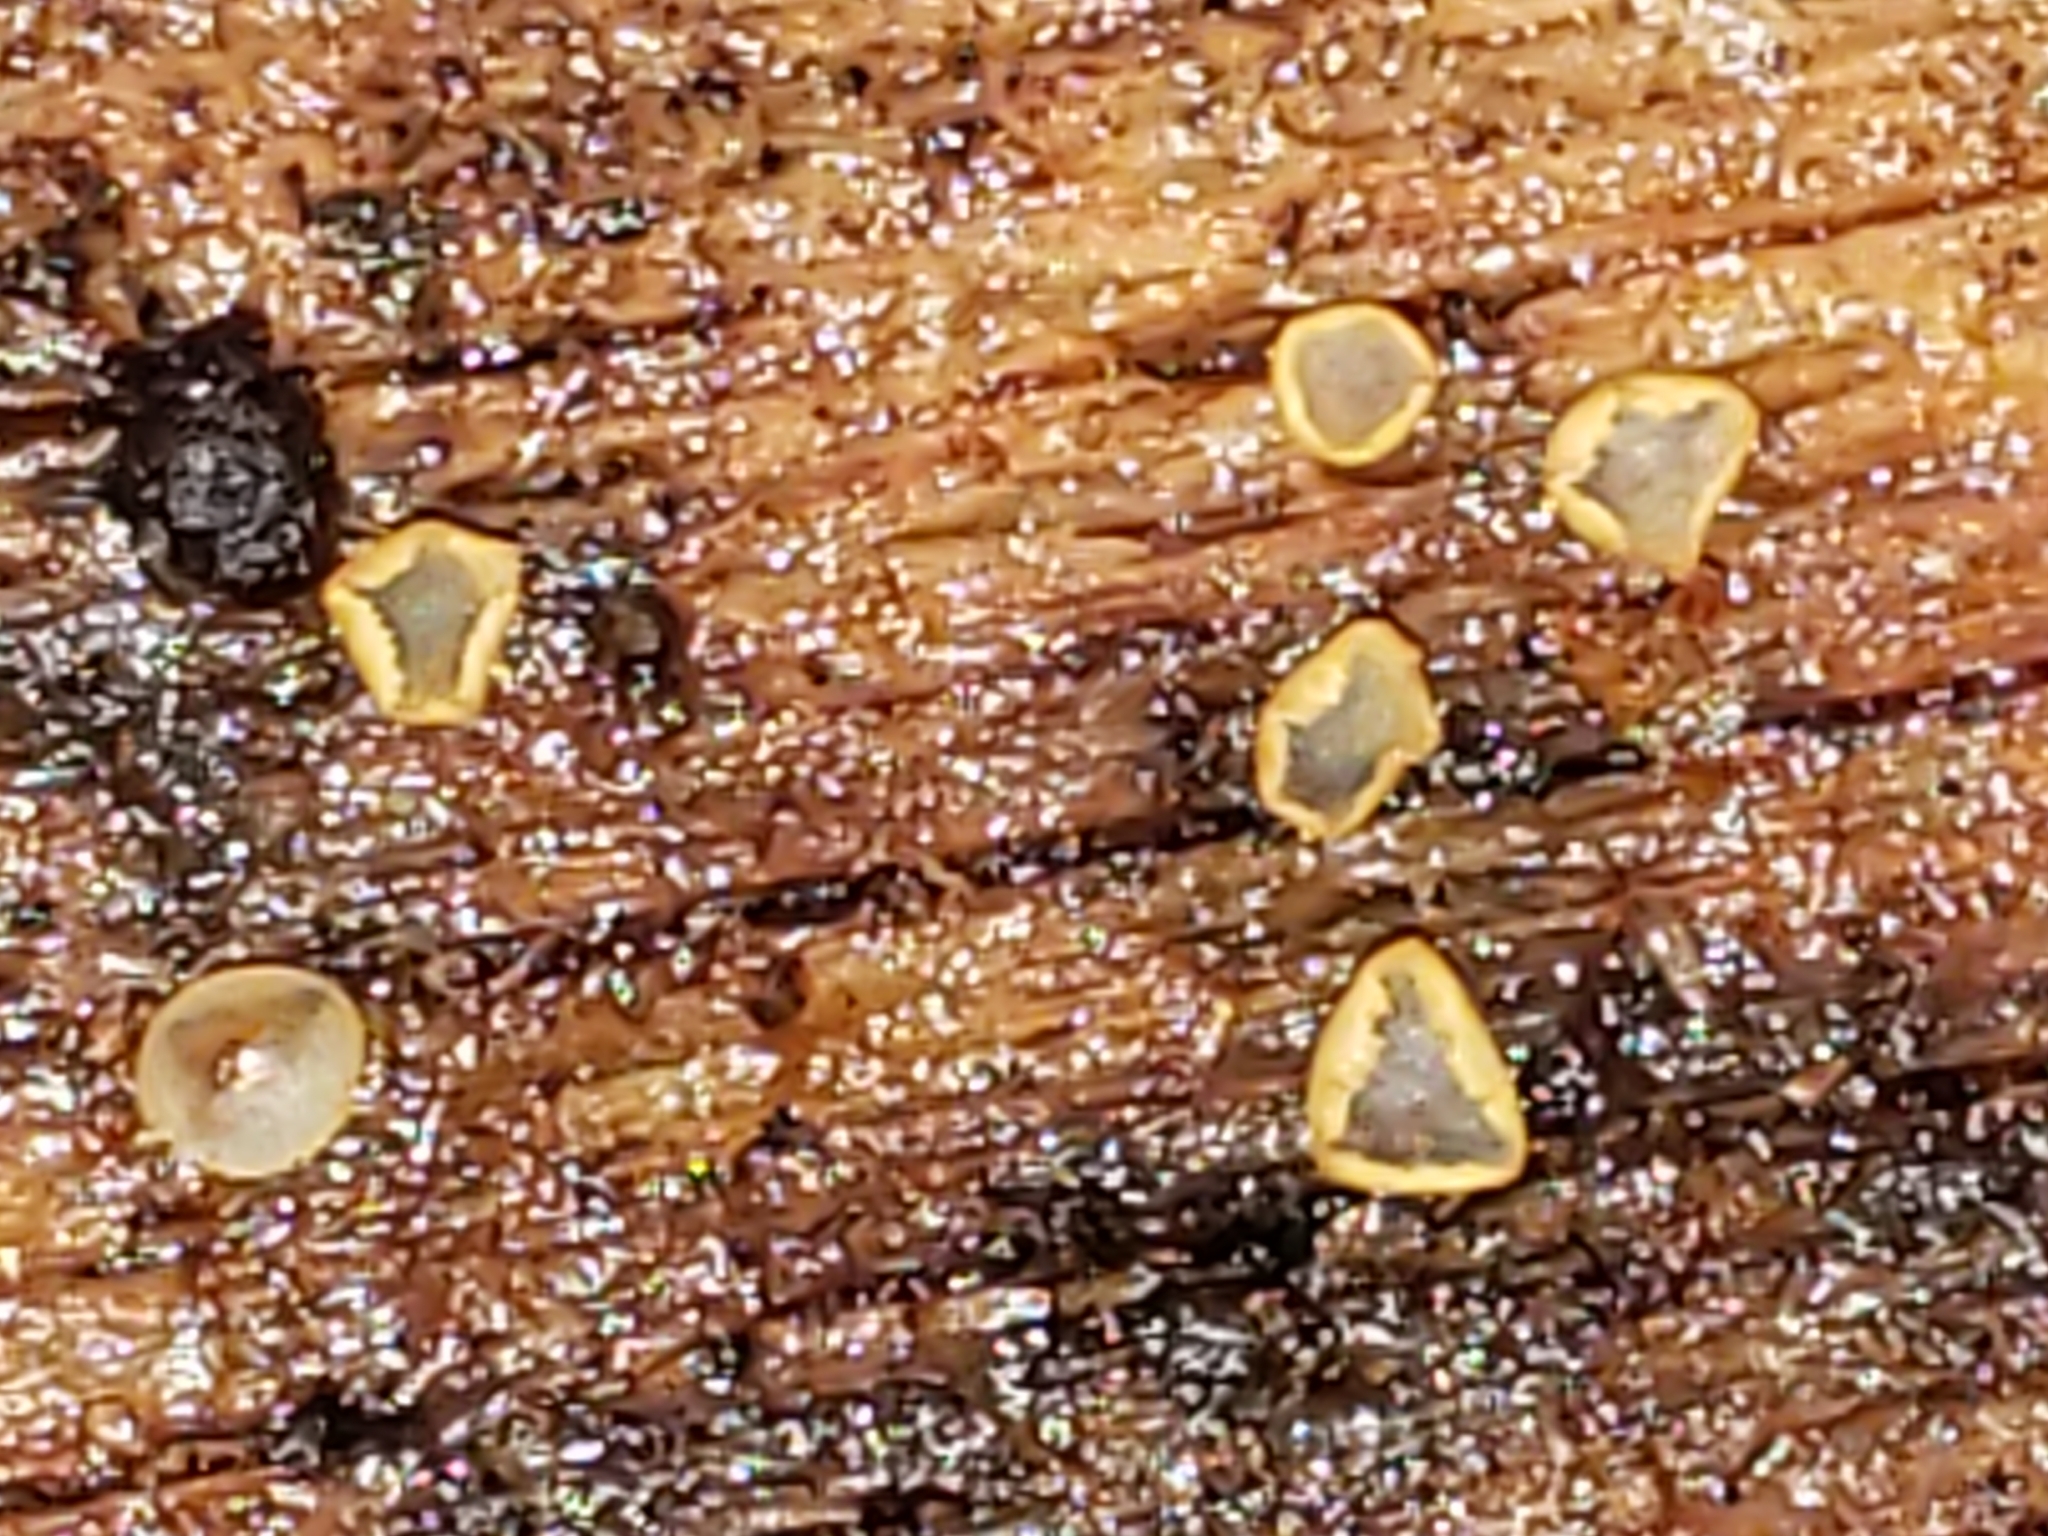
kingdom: Fungi
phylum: Ascomycota
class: Orbiliomycetes
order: Orbiliales
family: Orbiliaceae
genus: Orbilia
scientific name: Orbilia
